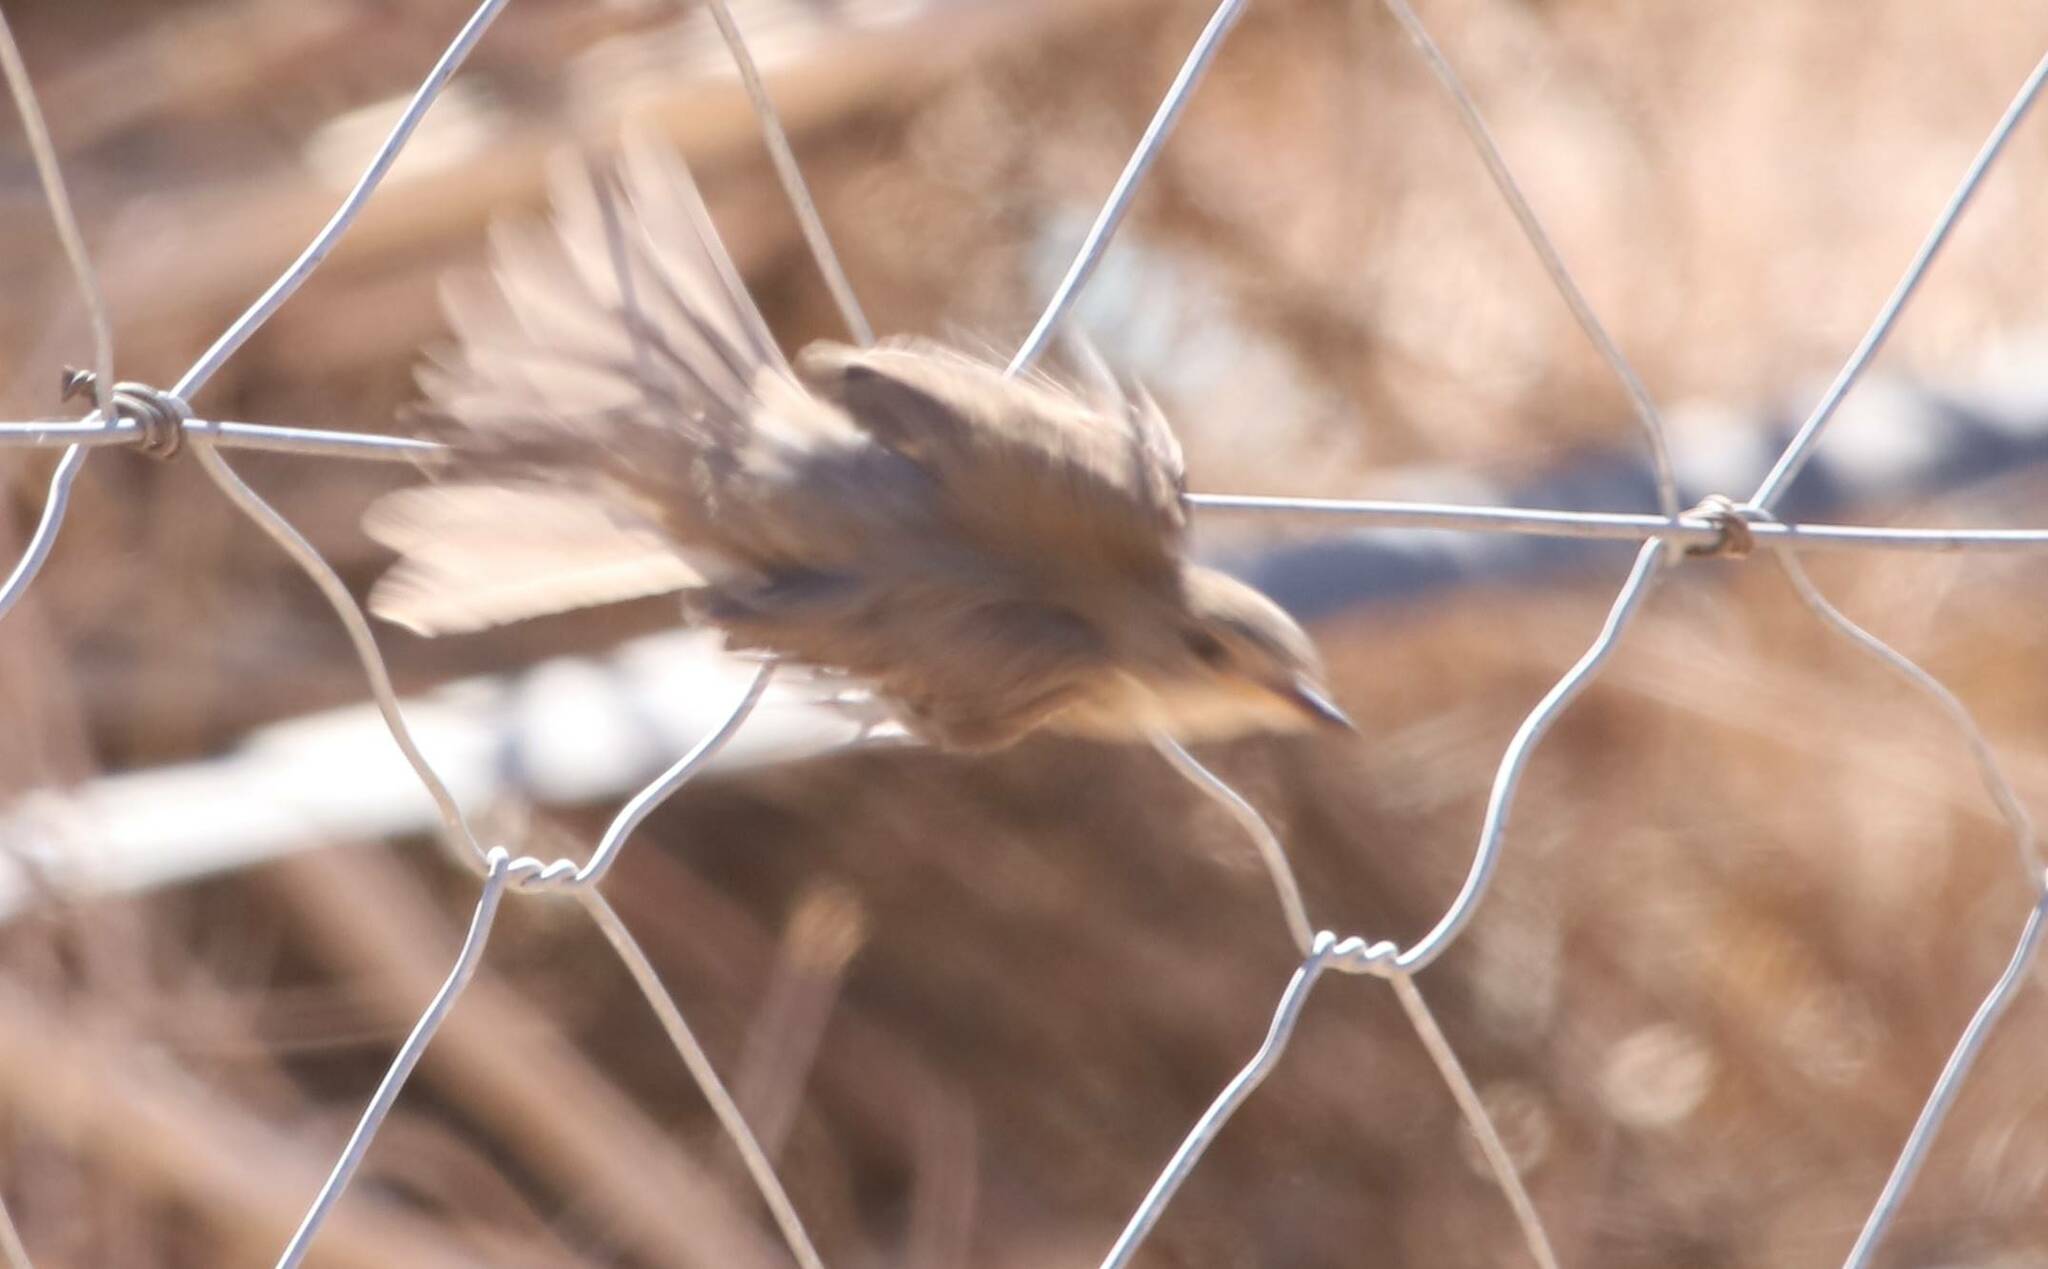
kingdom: Animalia
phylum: Chordata
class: Aves
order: Passeriformes
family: Muscicapidae
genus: Muscicapa
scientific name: Muscicapa striata
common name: Spotted flycatcher
